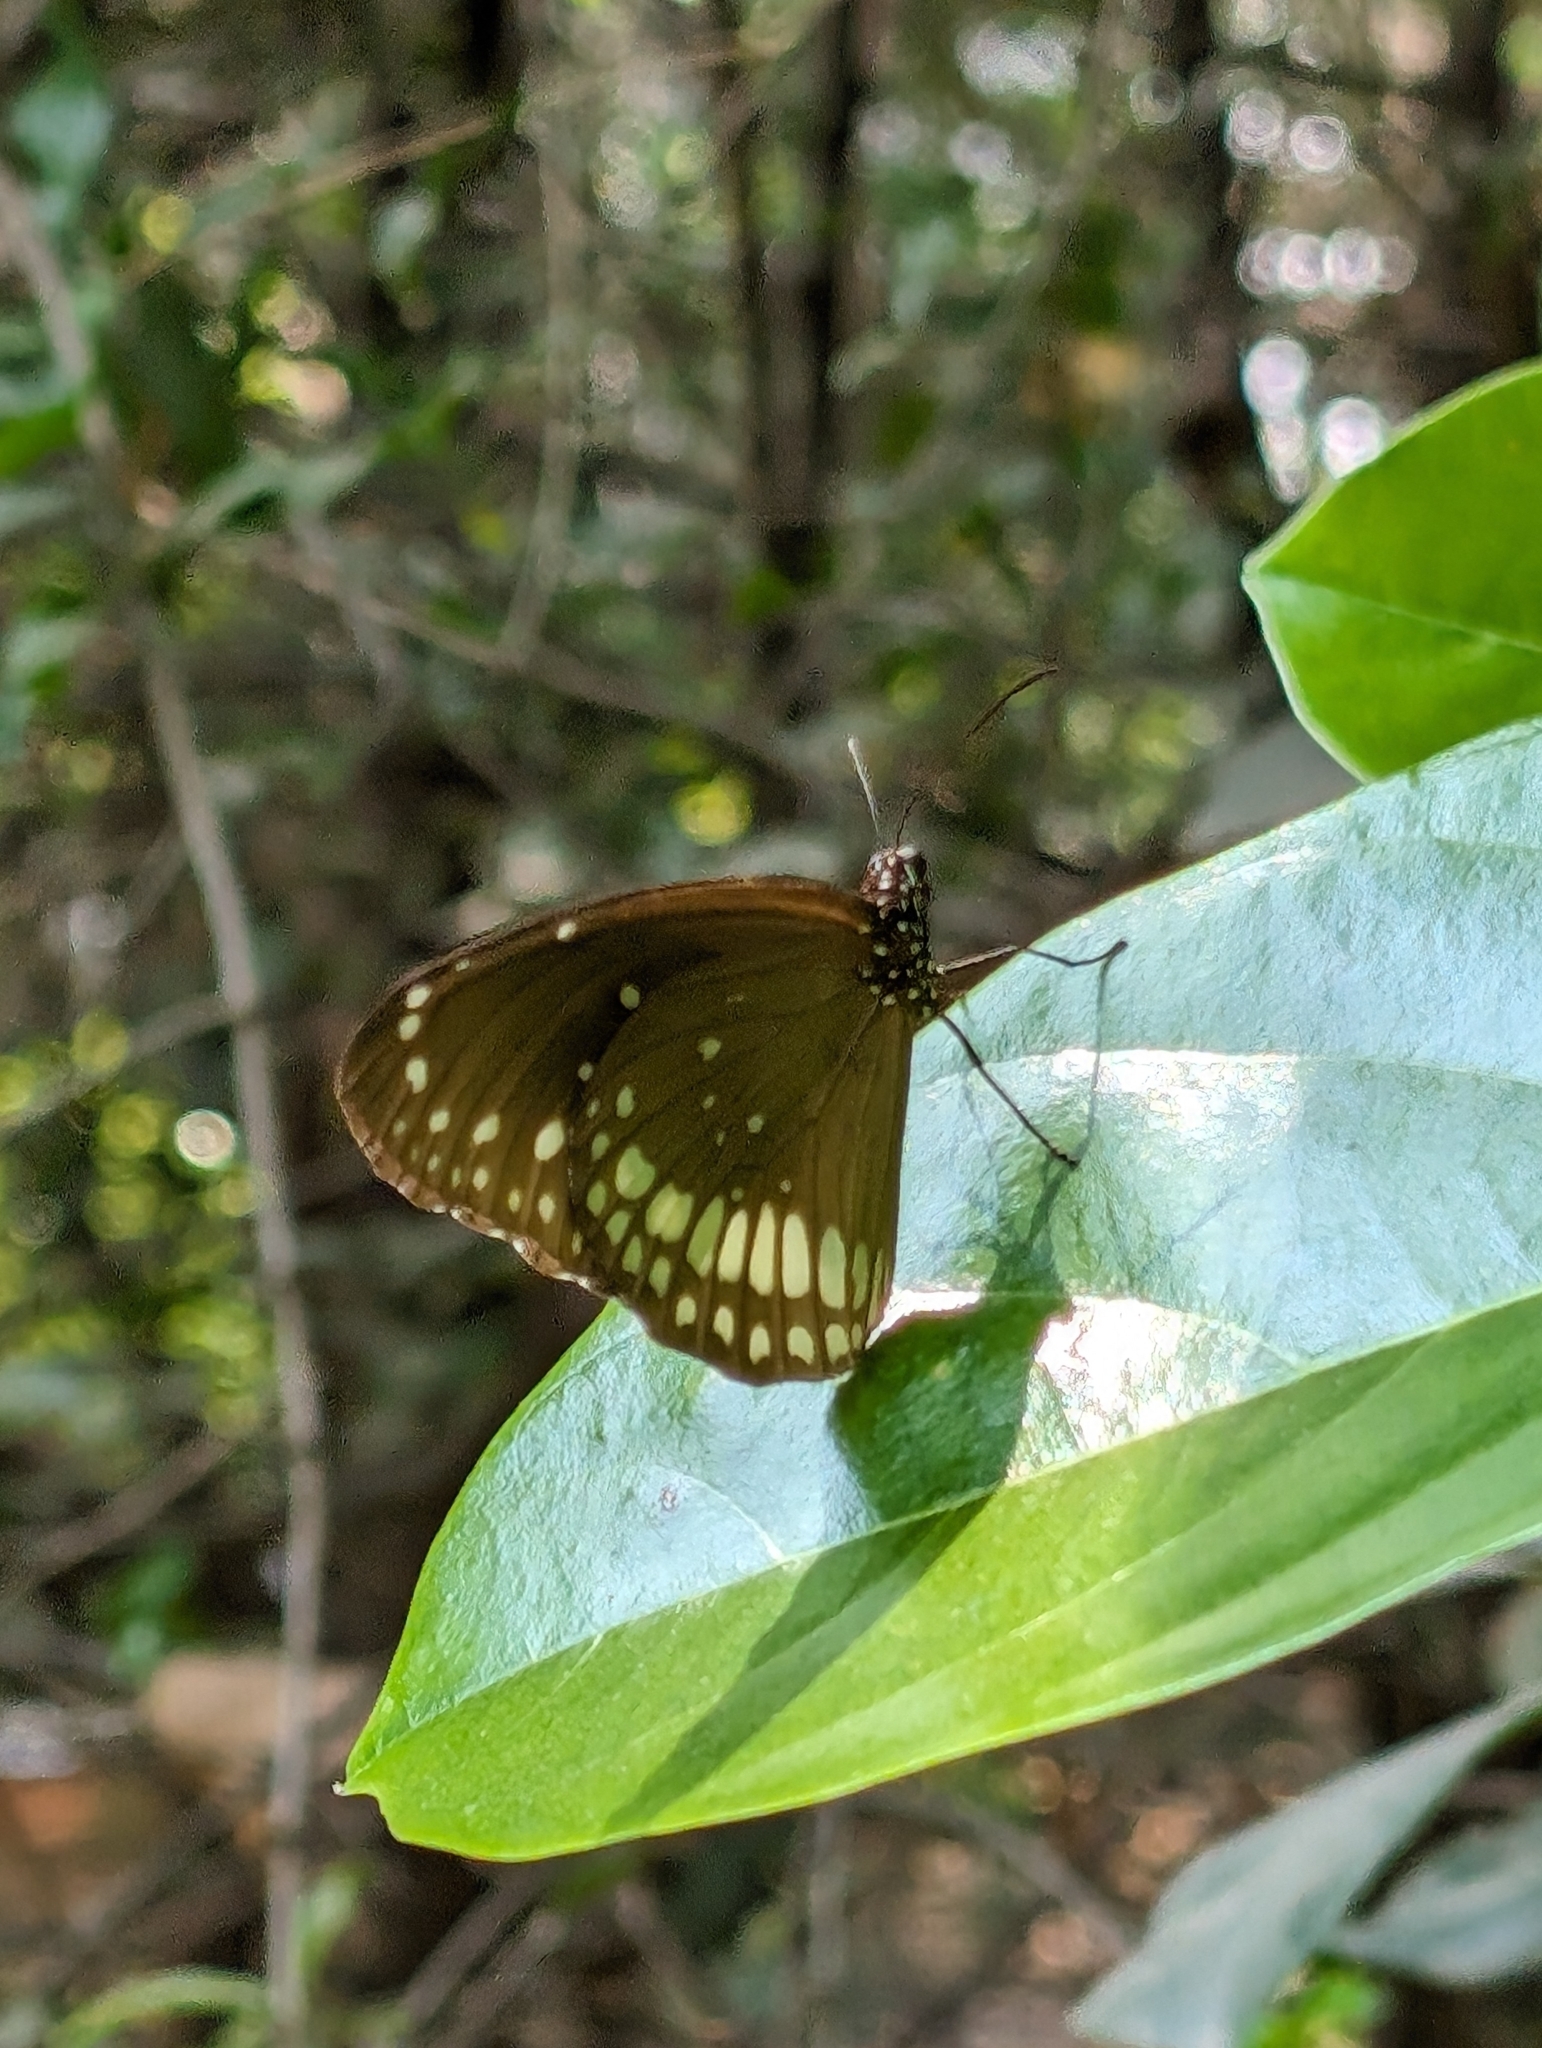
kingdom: Animalia
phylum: Arthropoda
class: Insecta
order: Lepidoptera
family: Nymphalidae
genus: Euploea
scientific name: Euploea core
